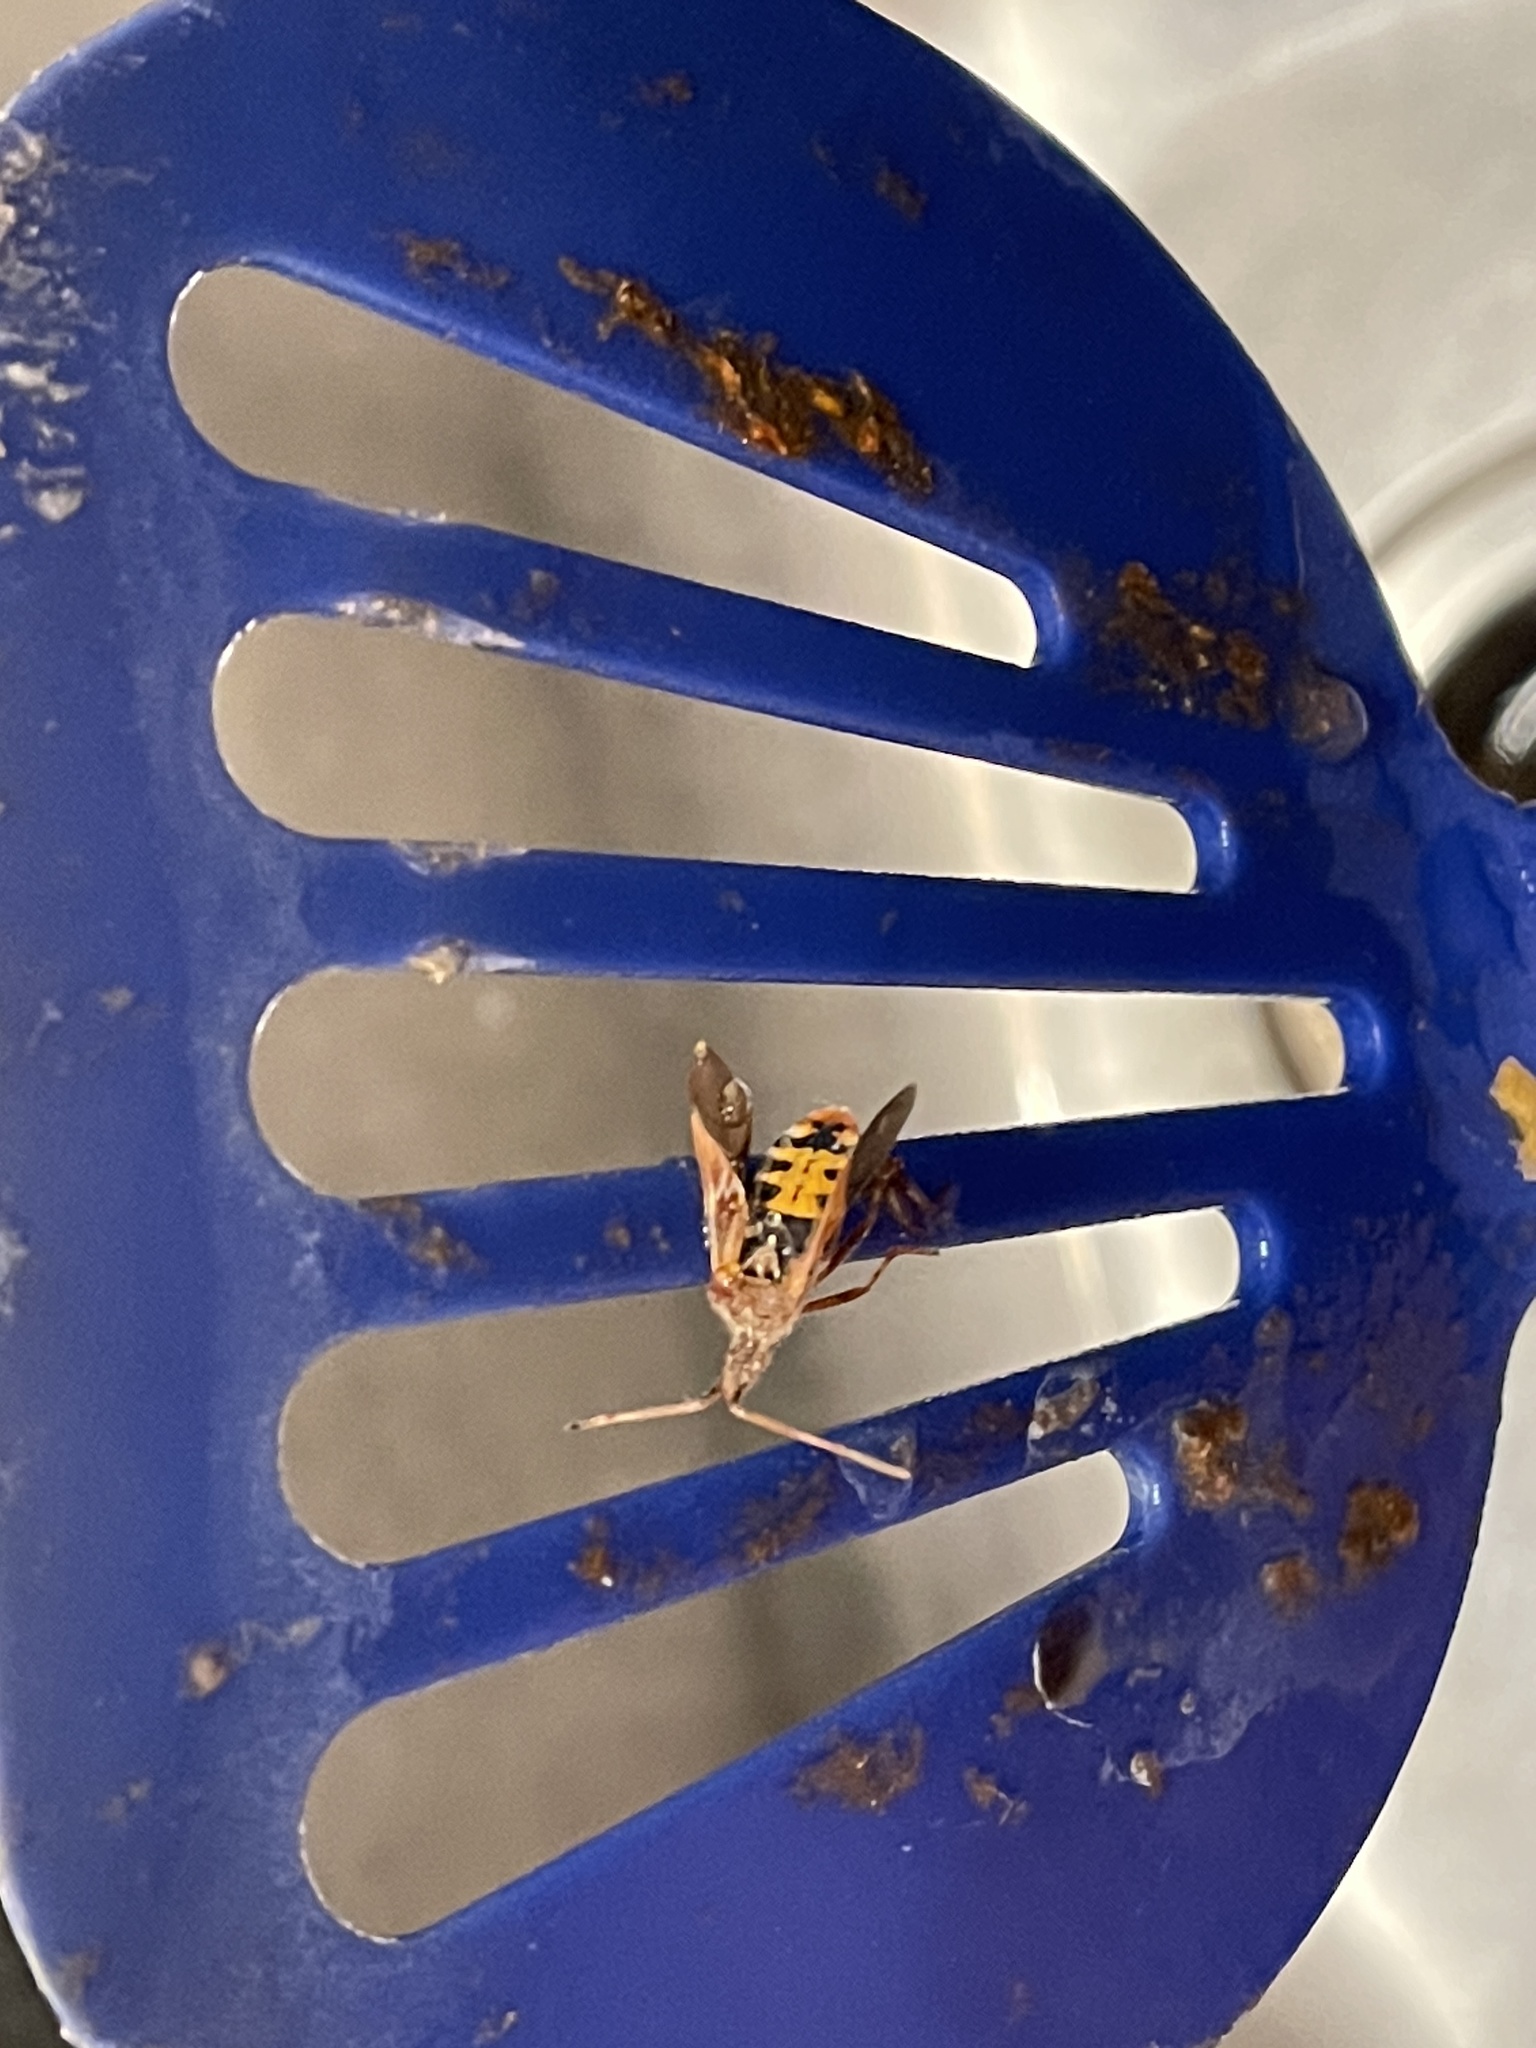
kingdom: Animalia
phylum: Arthropoda
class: Insecta
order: Hemiptera
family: Coreidae
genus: Leptoglossus
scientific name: Leptoglossus occidentalis
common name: Western conifer-seed bug
